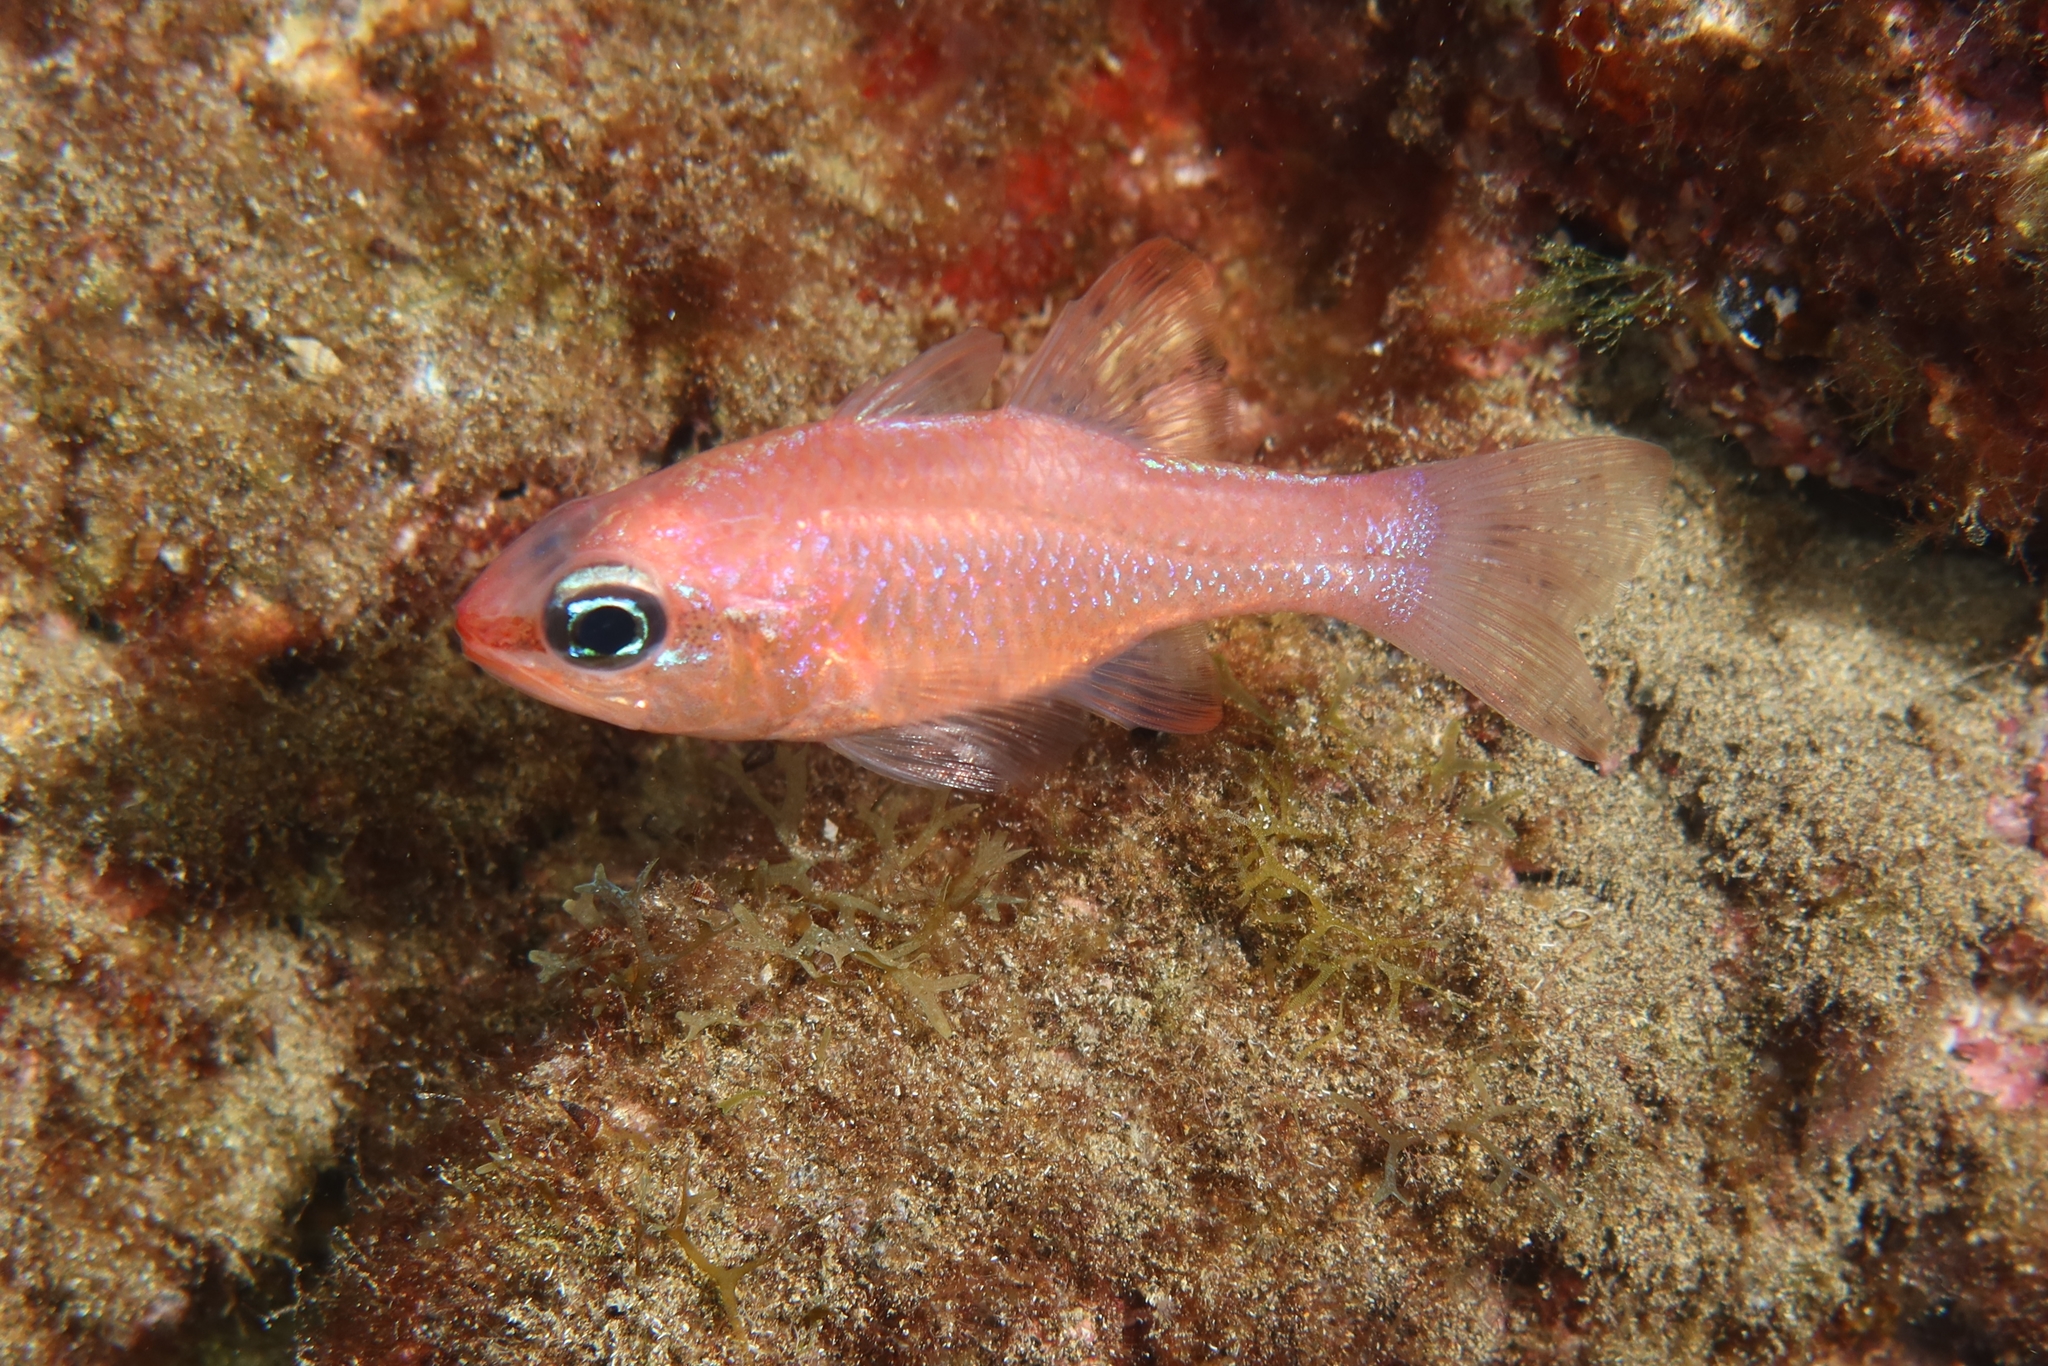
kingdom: Animalia
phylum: Chordata
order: Perciformes
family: Apogonidae
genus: Apogon
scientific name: Apogon imberbis
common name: Cardinal fish
